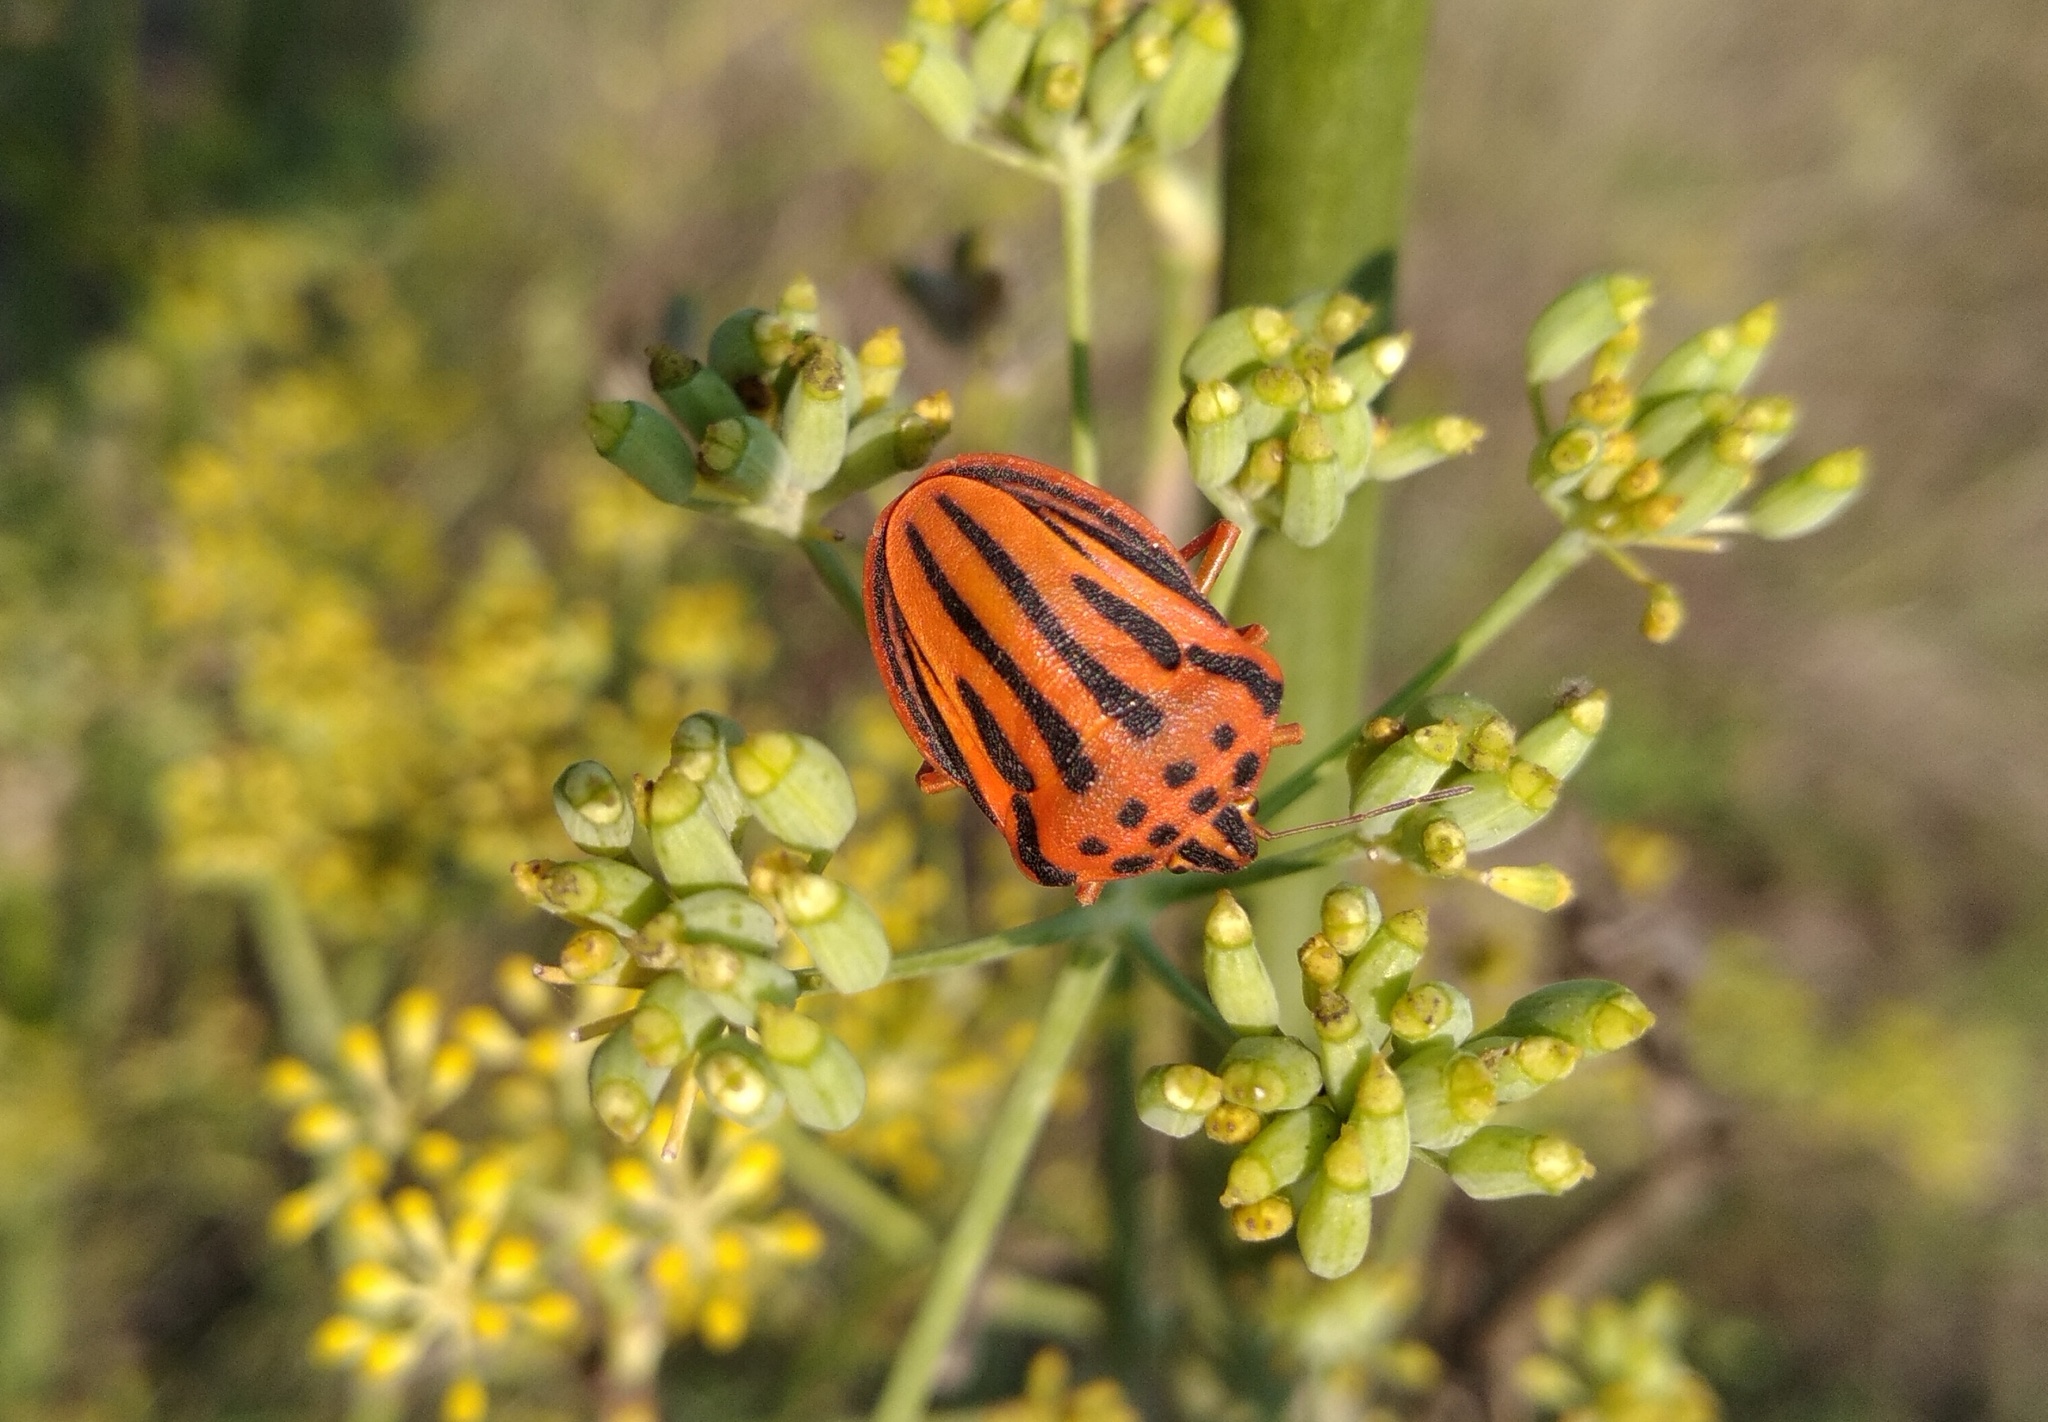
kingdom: Animalia
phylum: Arthropoda
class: Insecta
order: Hemiptera
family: Pentatomidae
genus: Graphosoma
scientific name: Graphosoma semipunctatum
